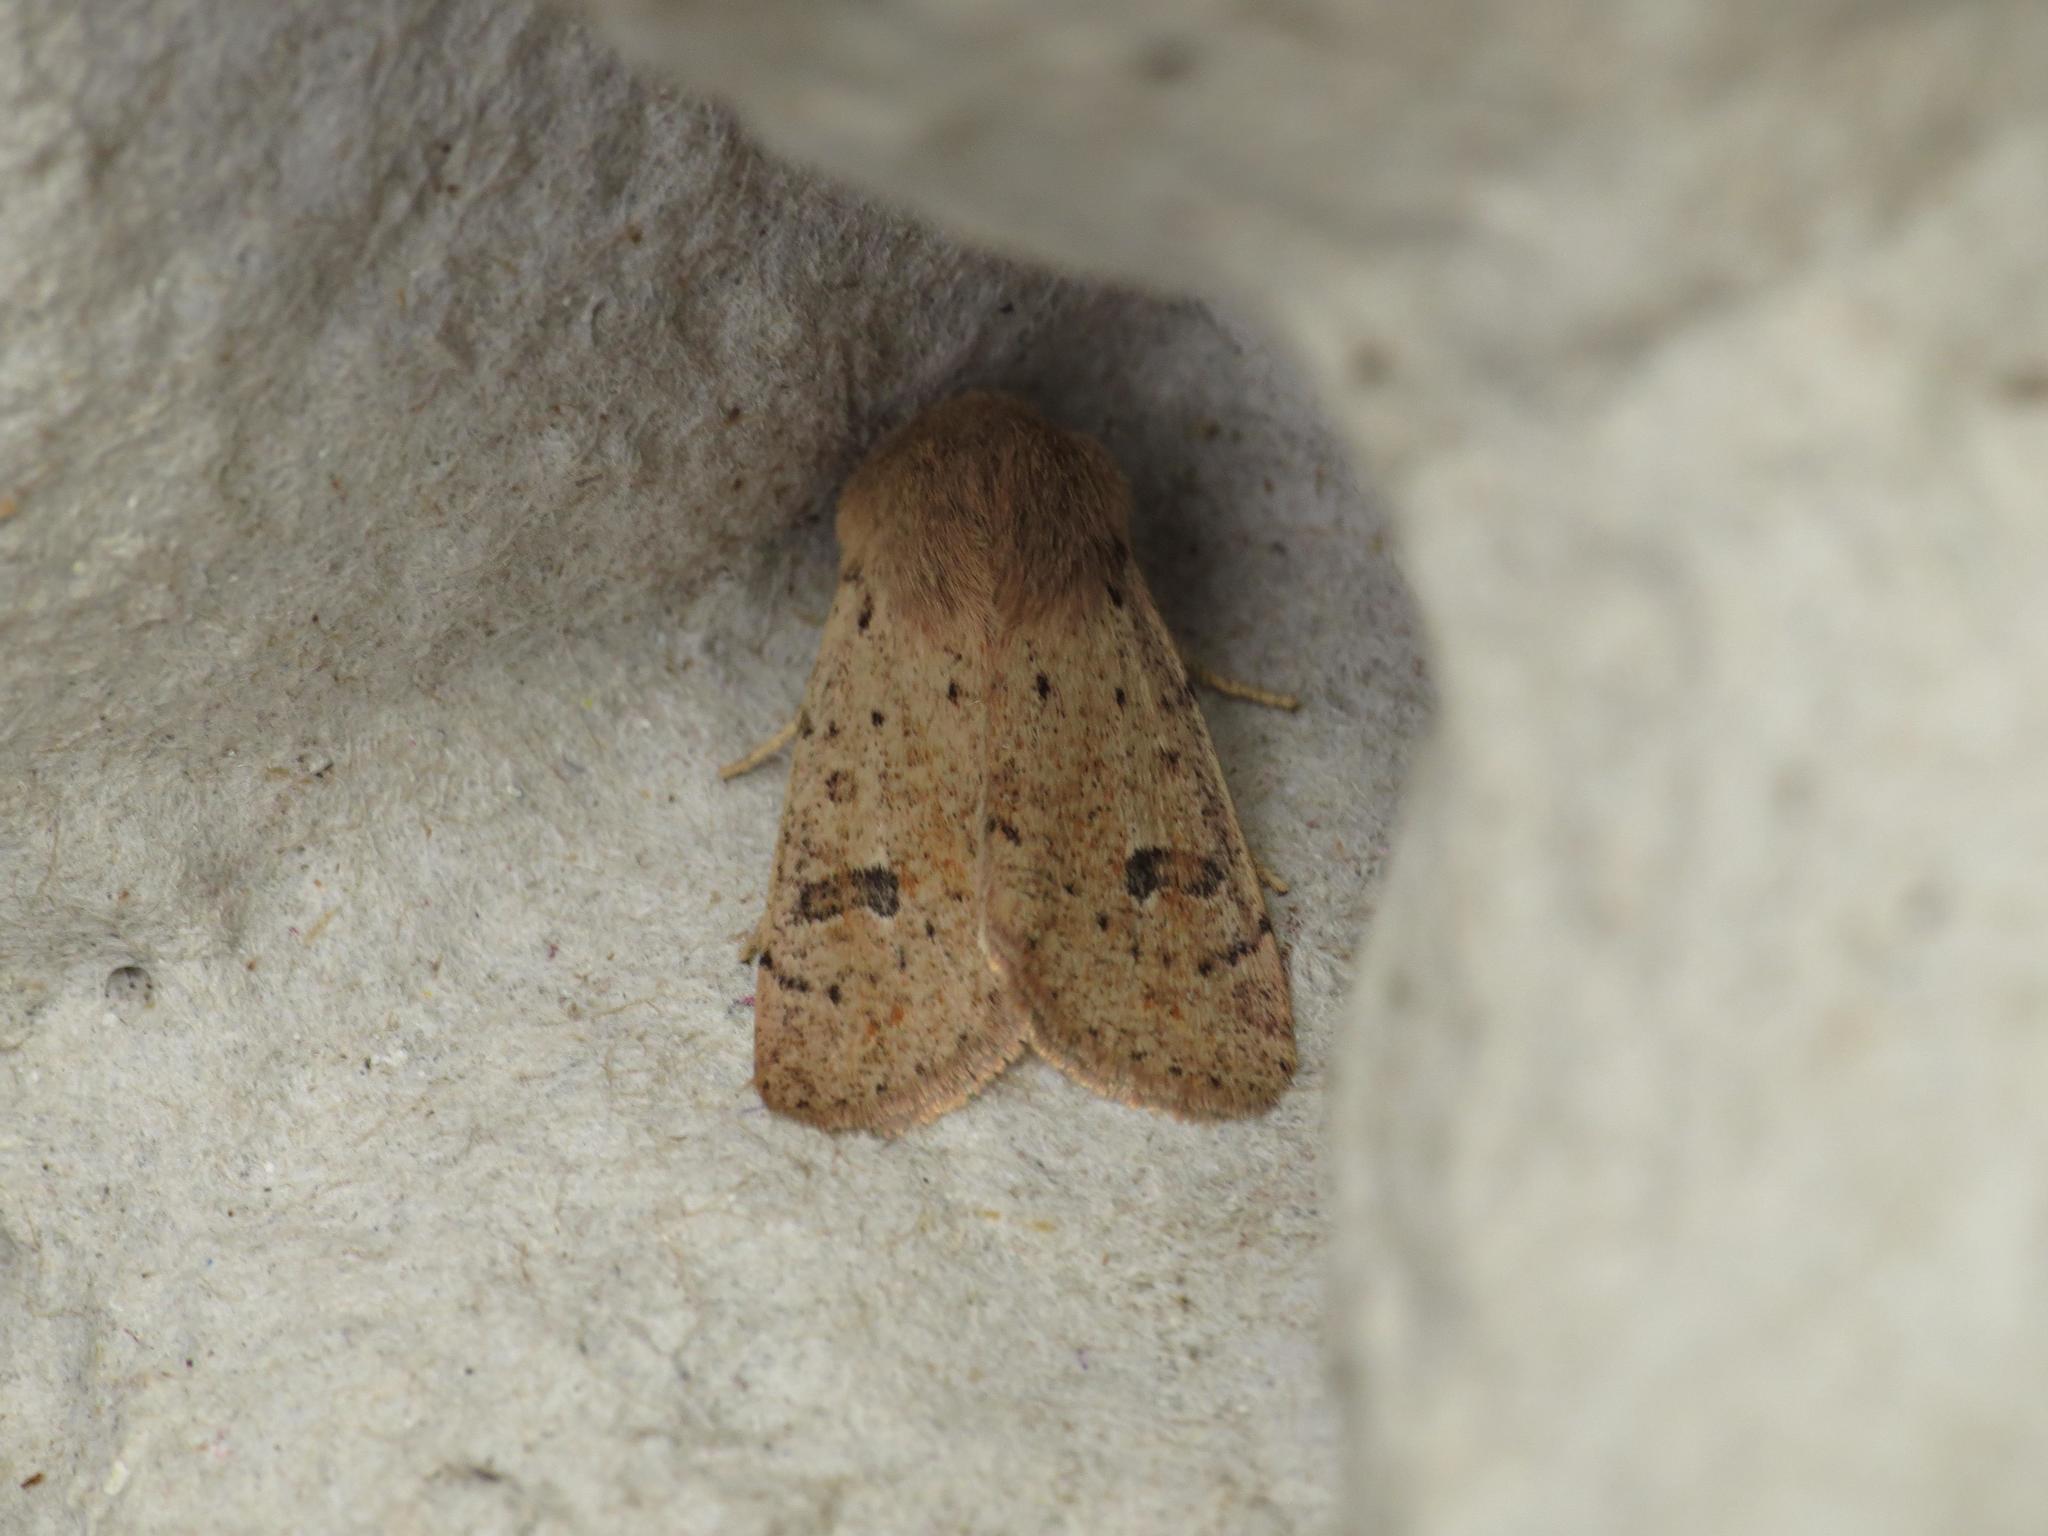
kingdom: Animalia
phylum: Arthropoda
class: Insecta
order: Lepidoptera
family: Noctuidae
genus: Orthosia
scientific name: Orthosia cruda
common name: Small quaker
